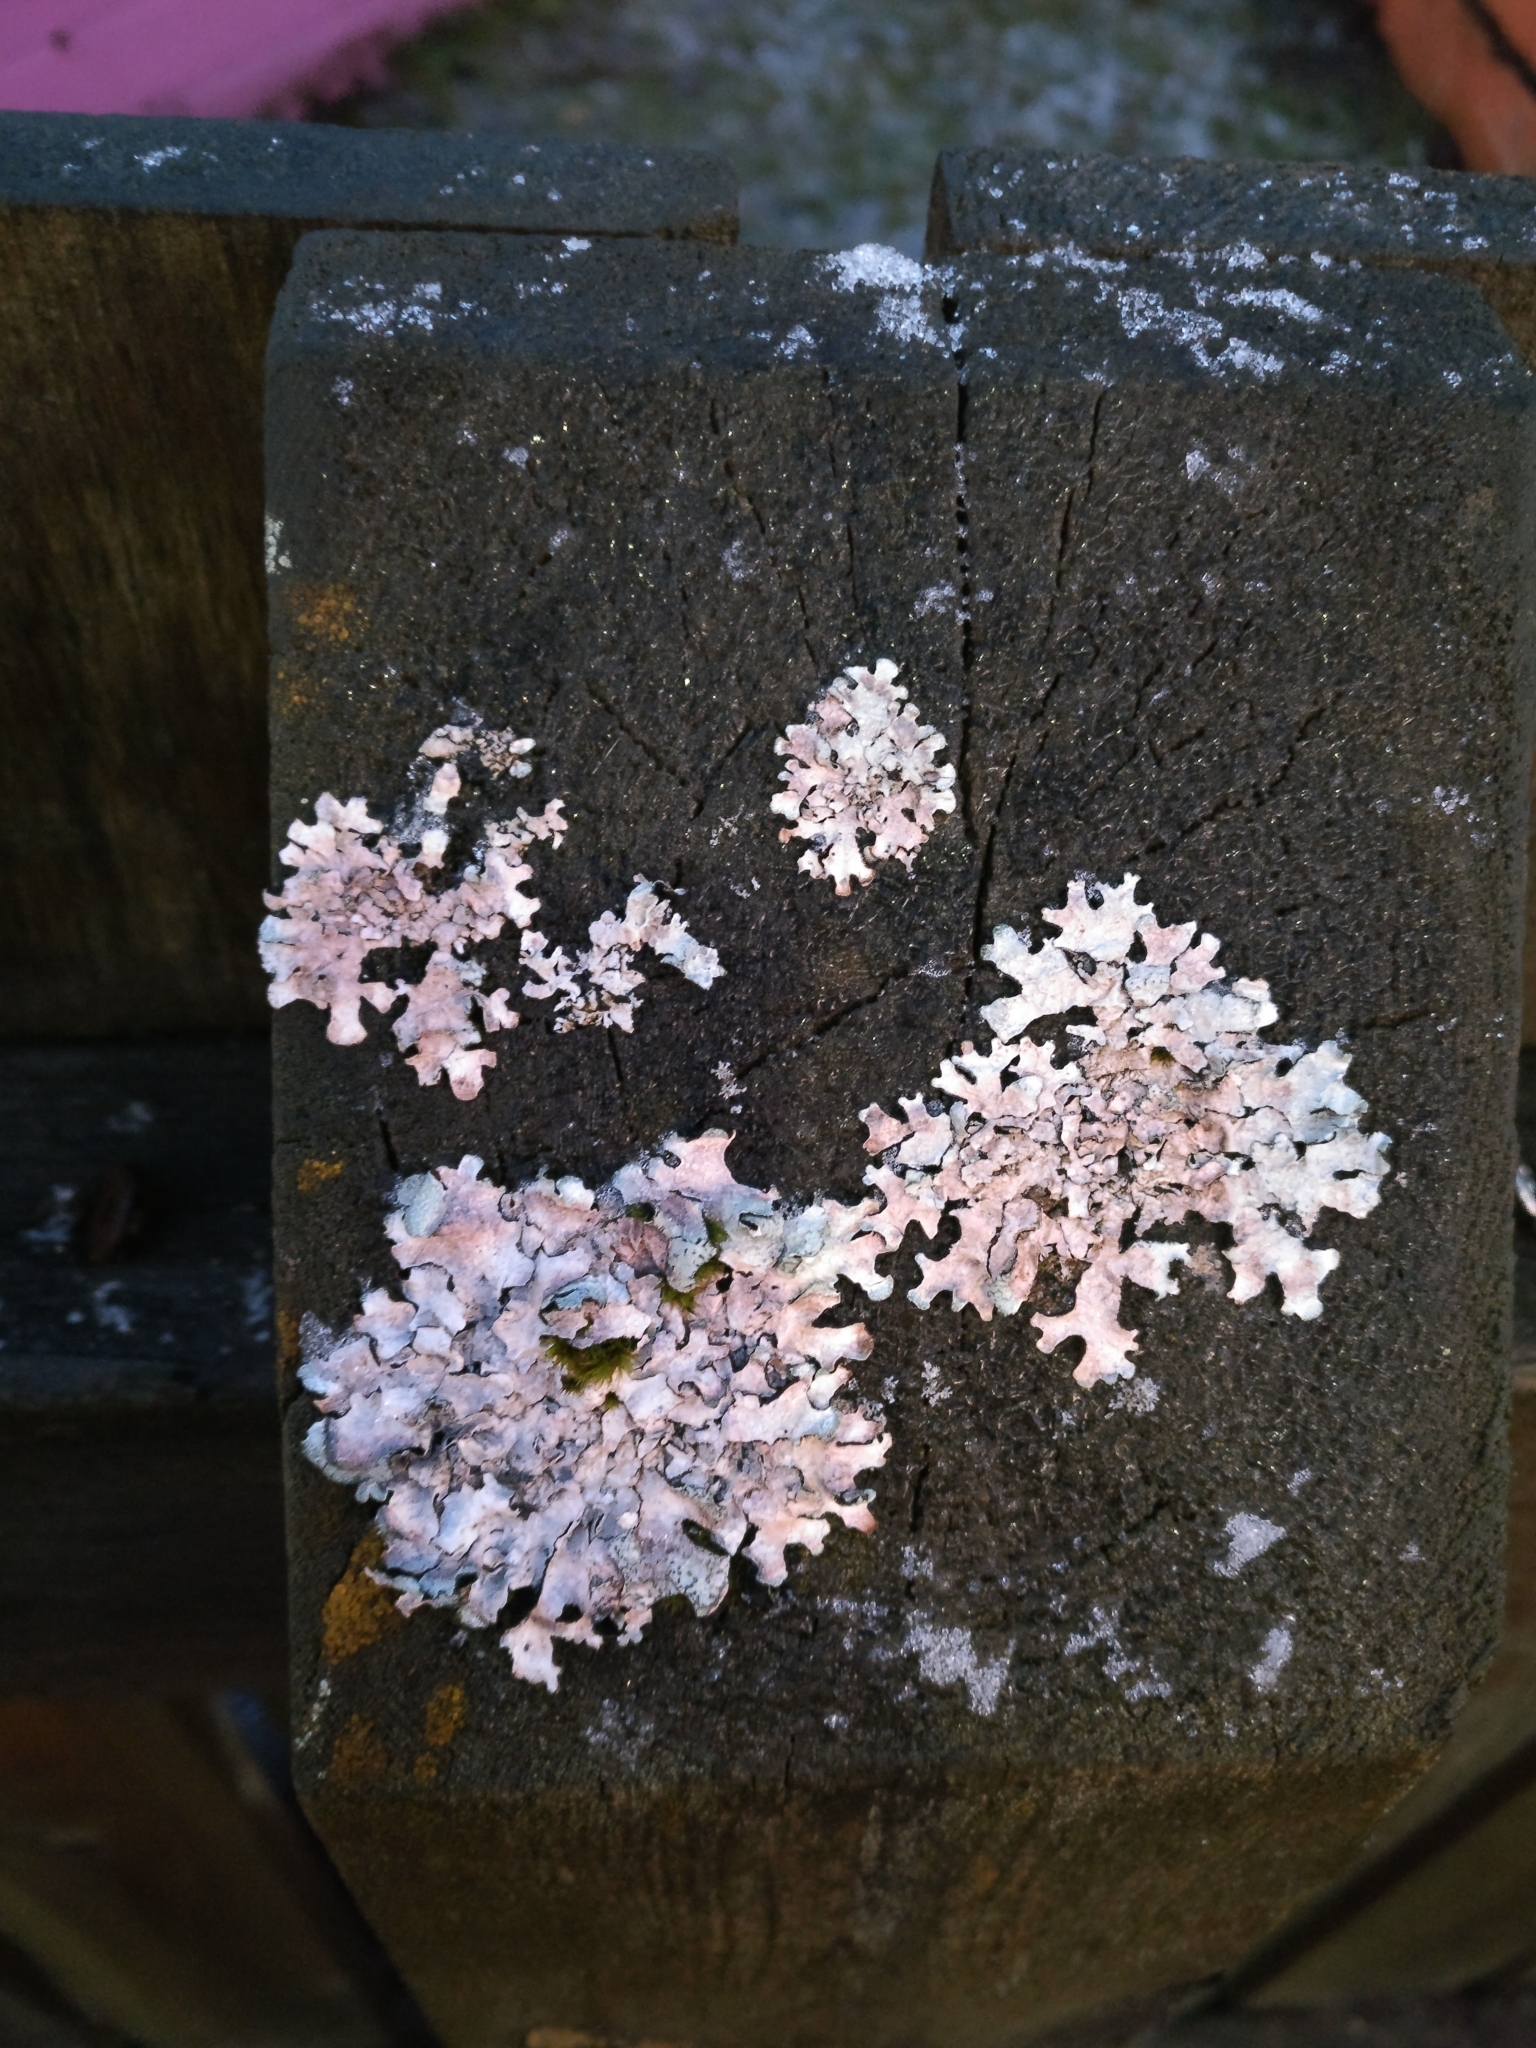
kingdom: Fungi
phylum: Ascomycota
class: Lecanoromycetes
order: Lecanorales
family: Parmeliaceae
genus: Parmelia
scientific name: Parmelia sulcata
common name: Netted shield lichen
